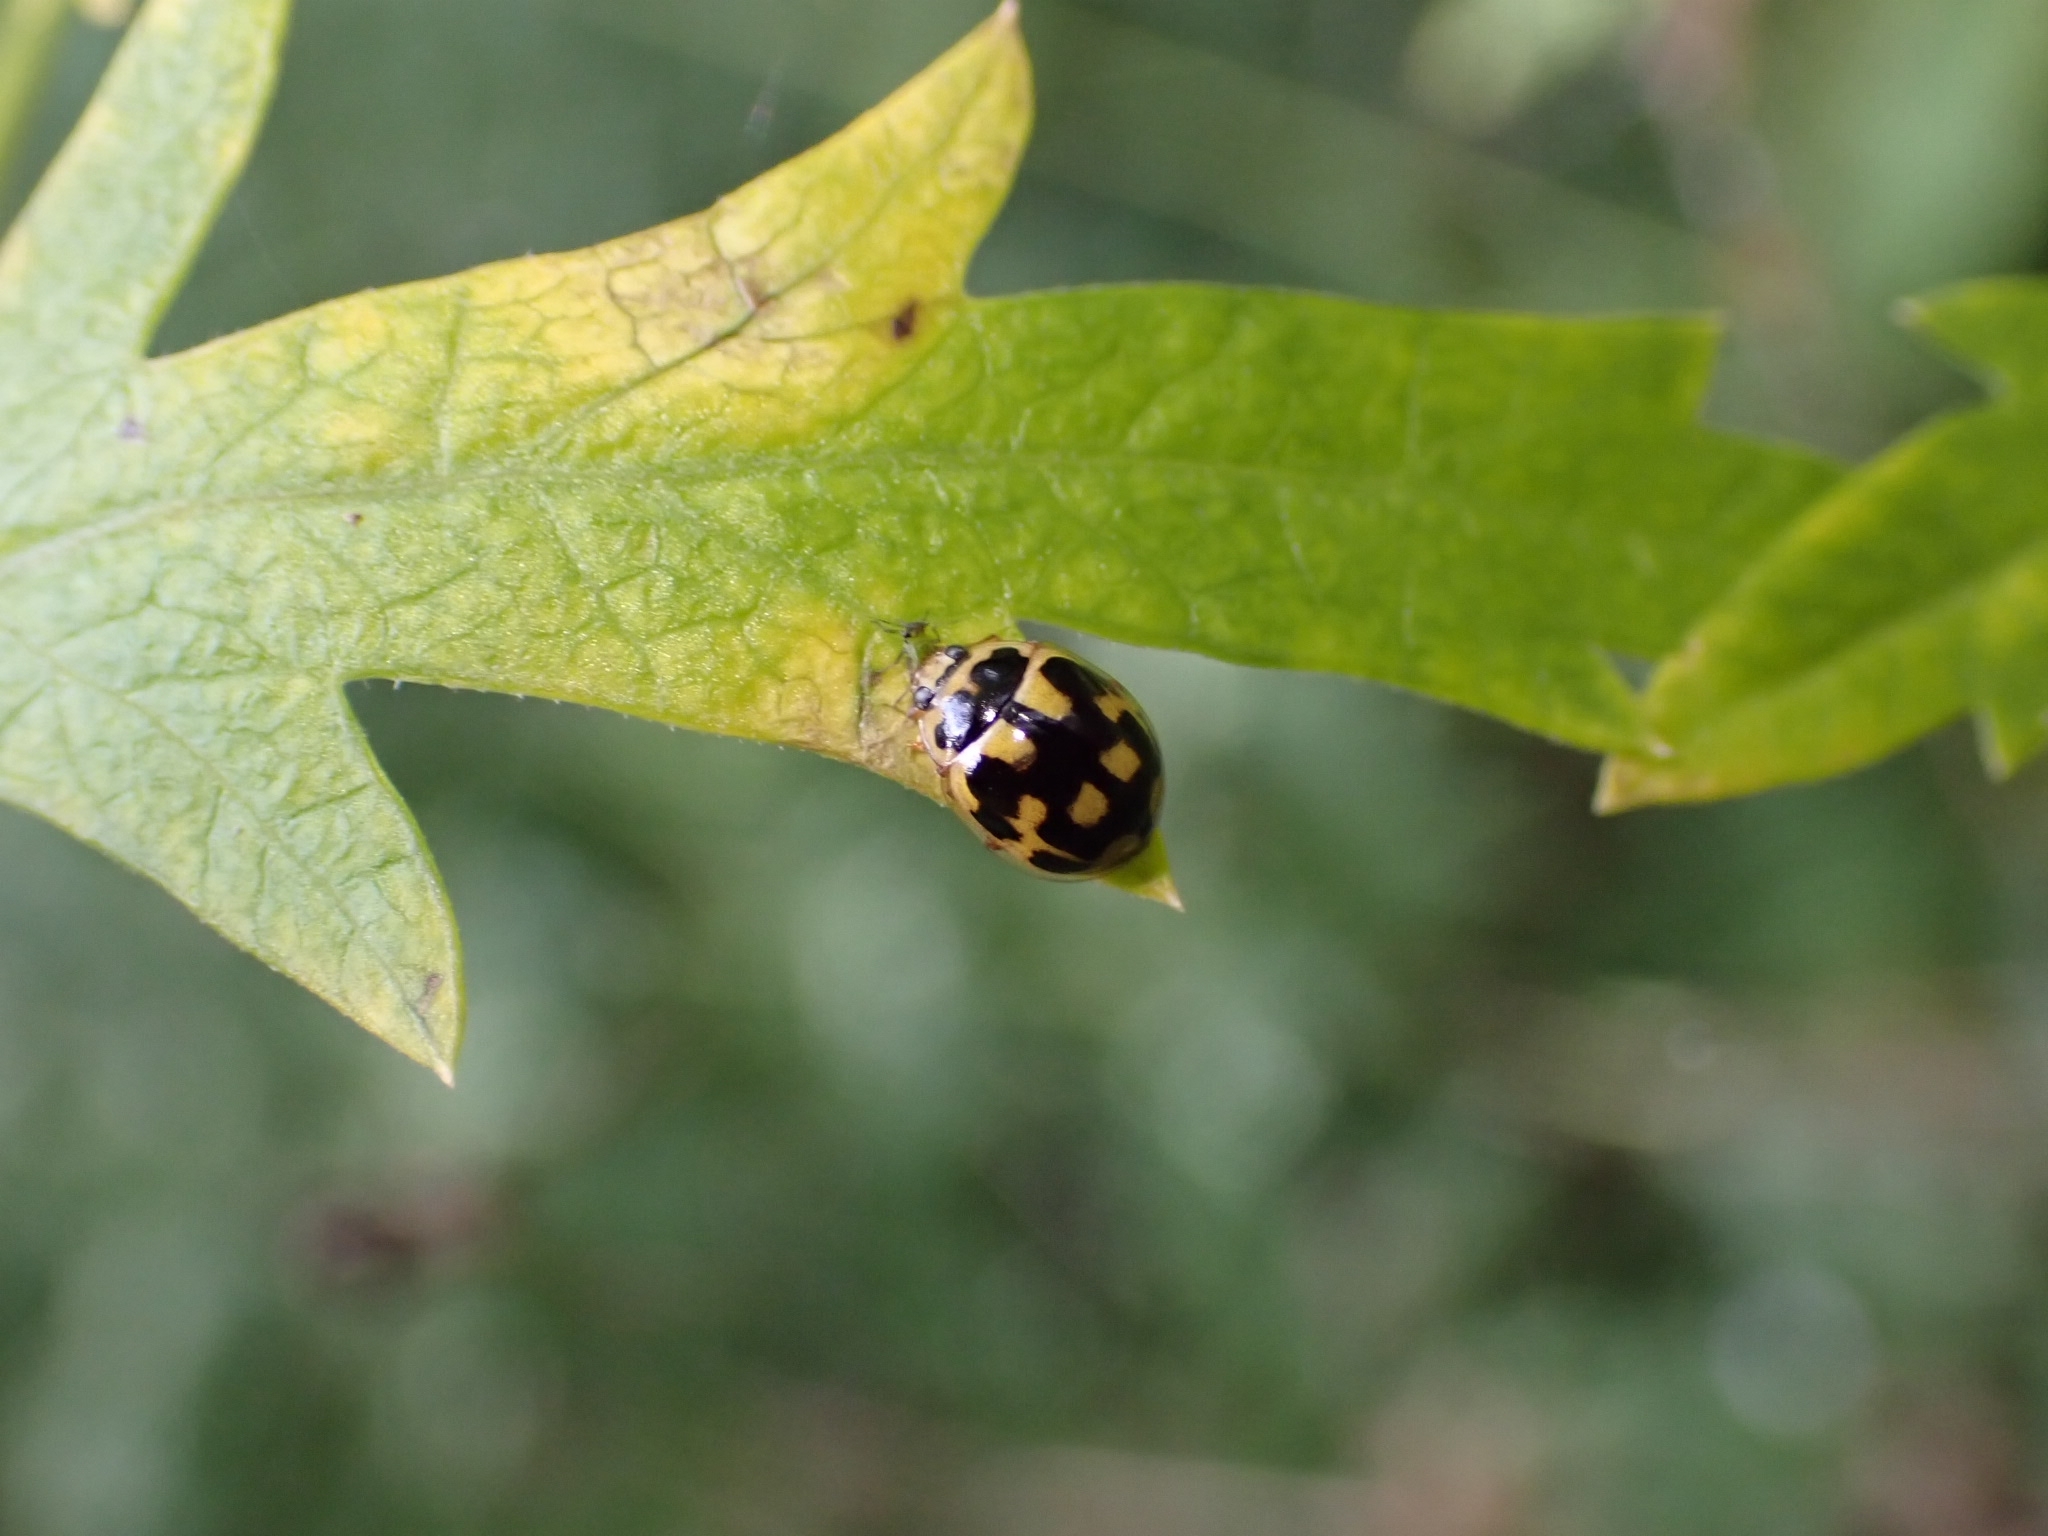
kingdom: Animalia
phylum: Arthropoda
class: Insecta
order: Coleoptera
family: Coccinellidae
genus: Propylaea
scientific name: Propylaea quatuordecimpunctata
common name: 14-spotted ladybird beetle
